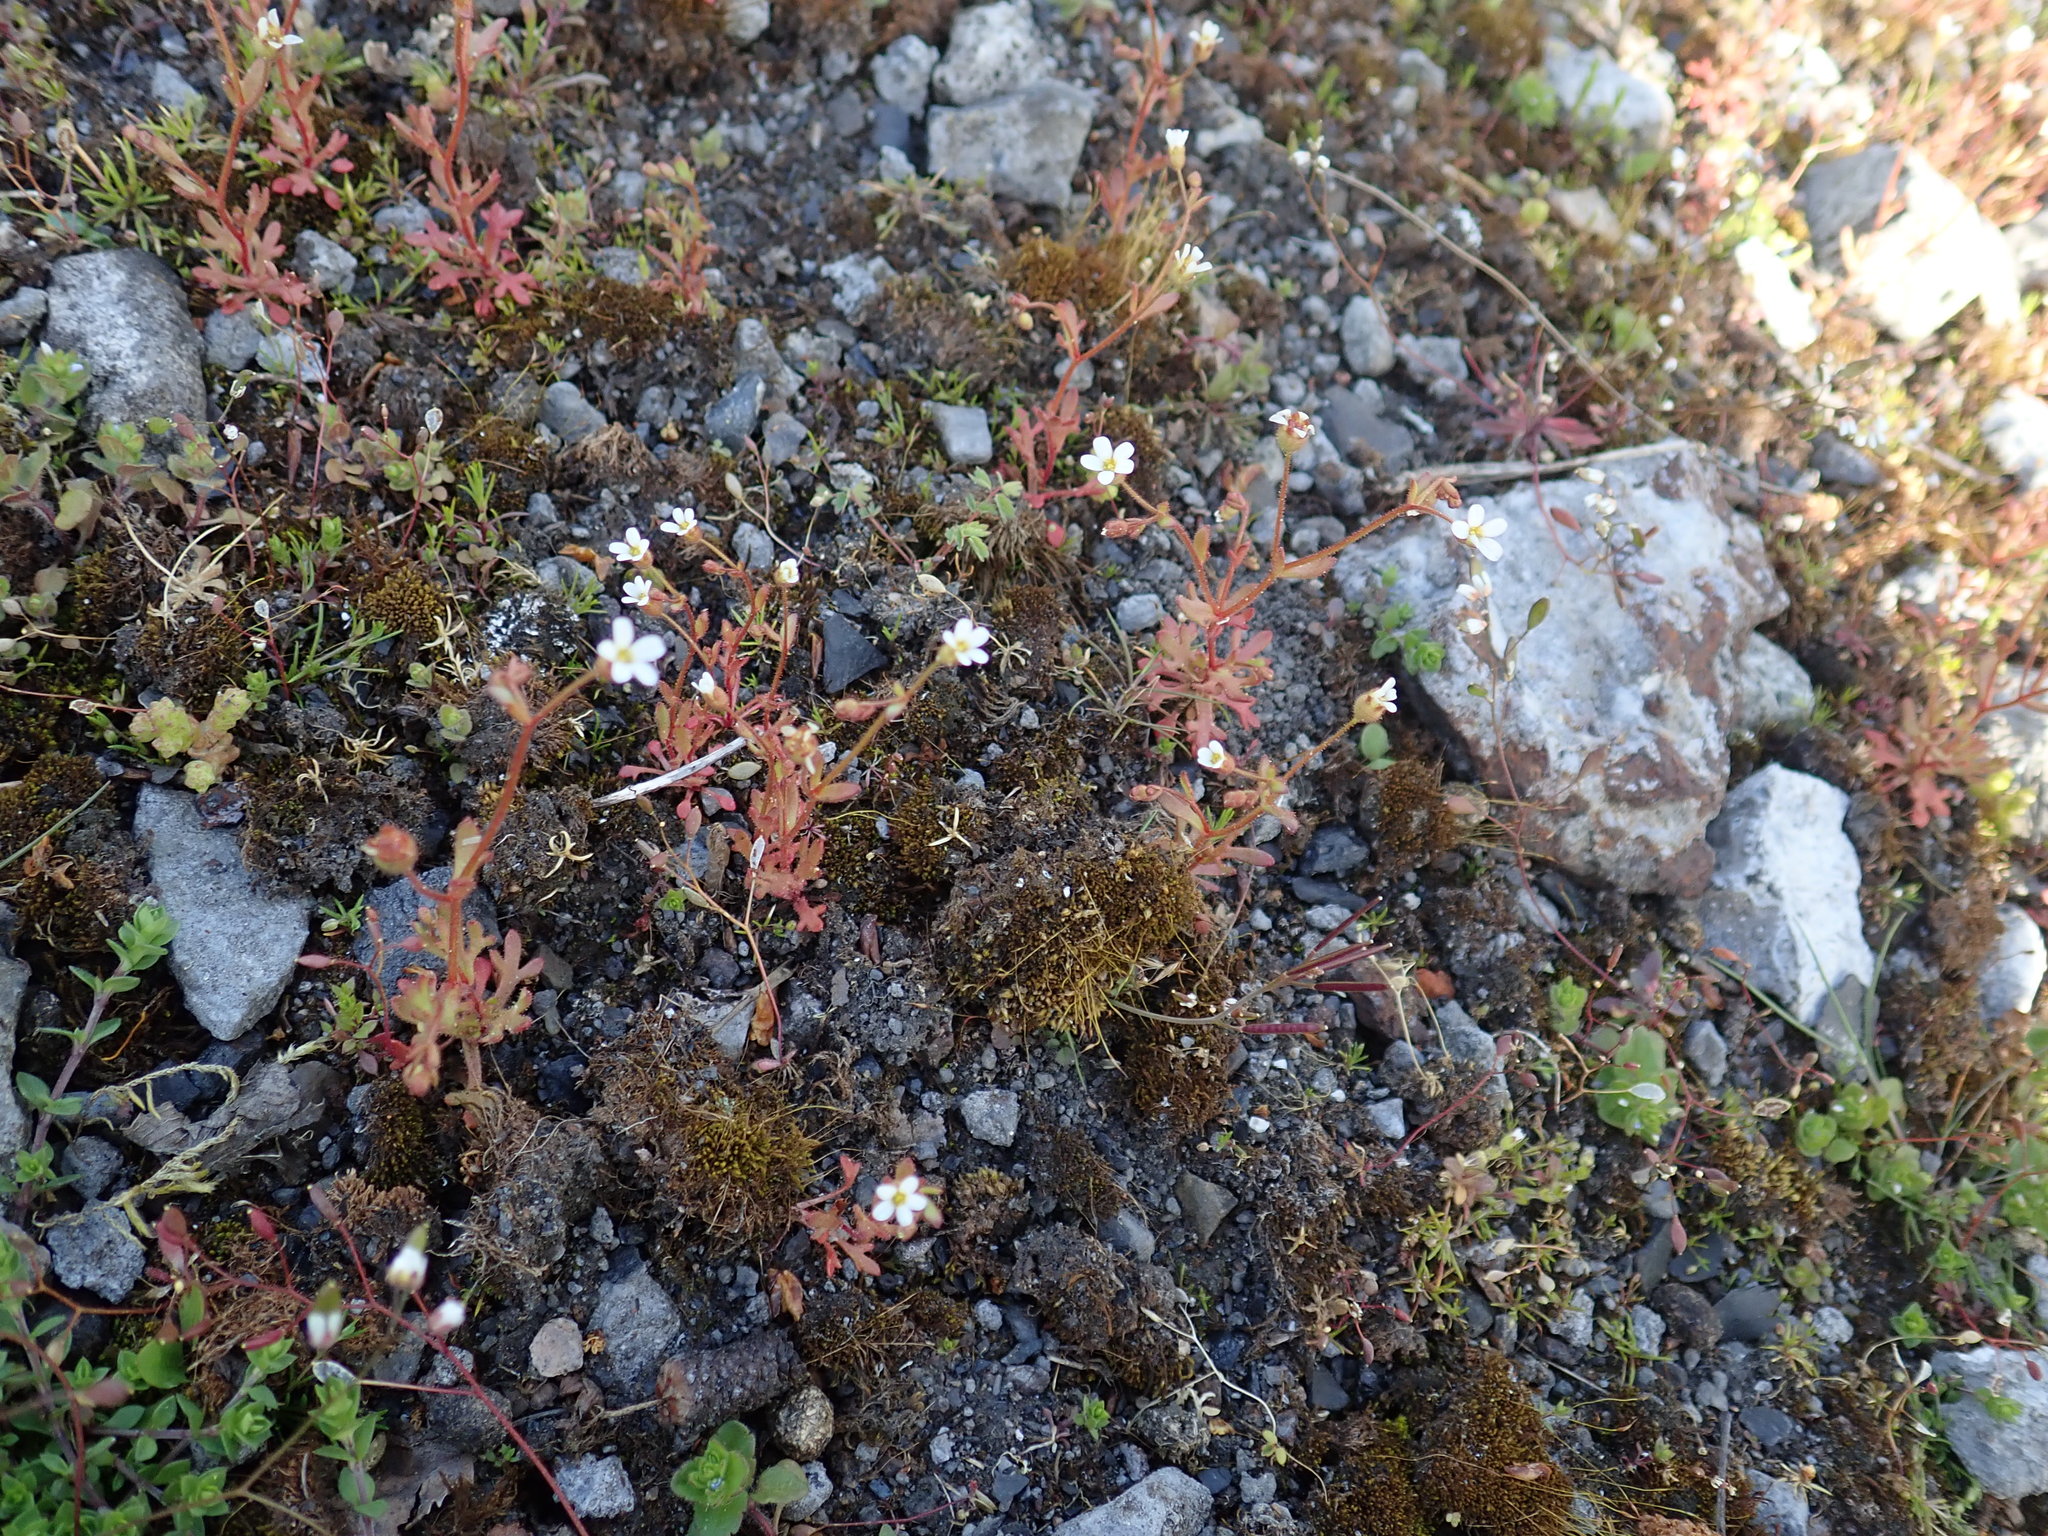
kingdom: Plantae
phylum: Tracheophyta
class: Magnoliopsida
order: Saxifragales
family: Saxifragaceae
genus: Saxifraga
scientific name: Saxifraga tridactylites
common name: Rue-leaved saxifrage
